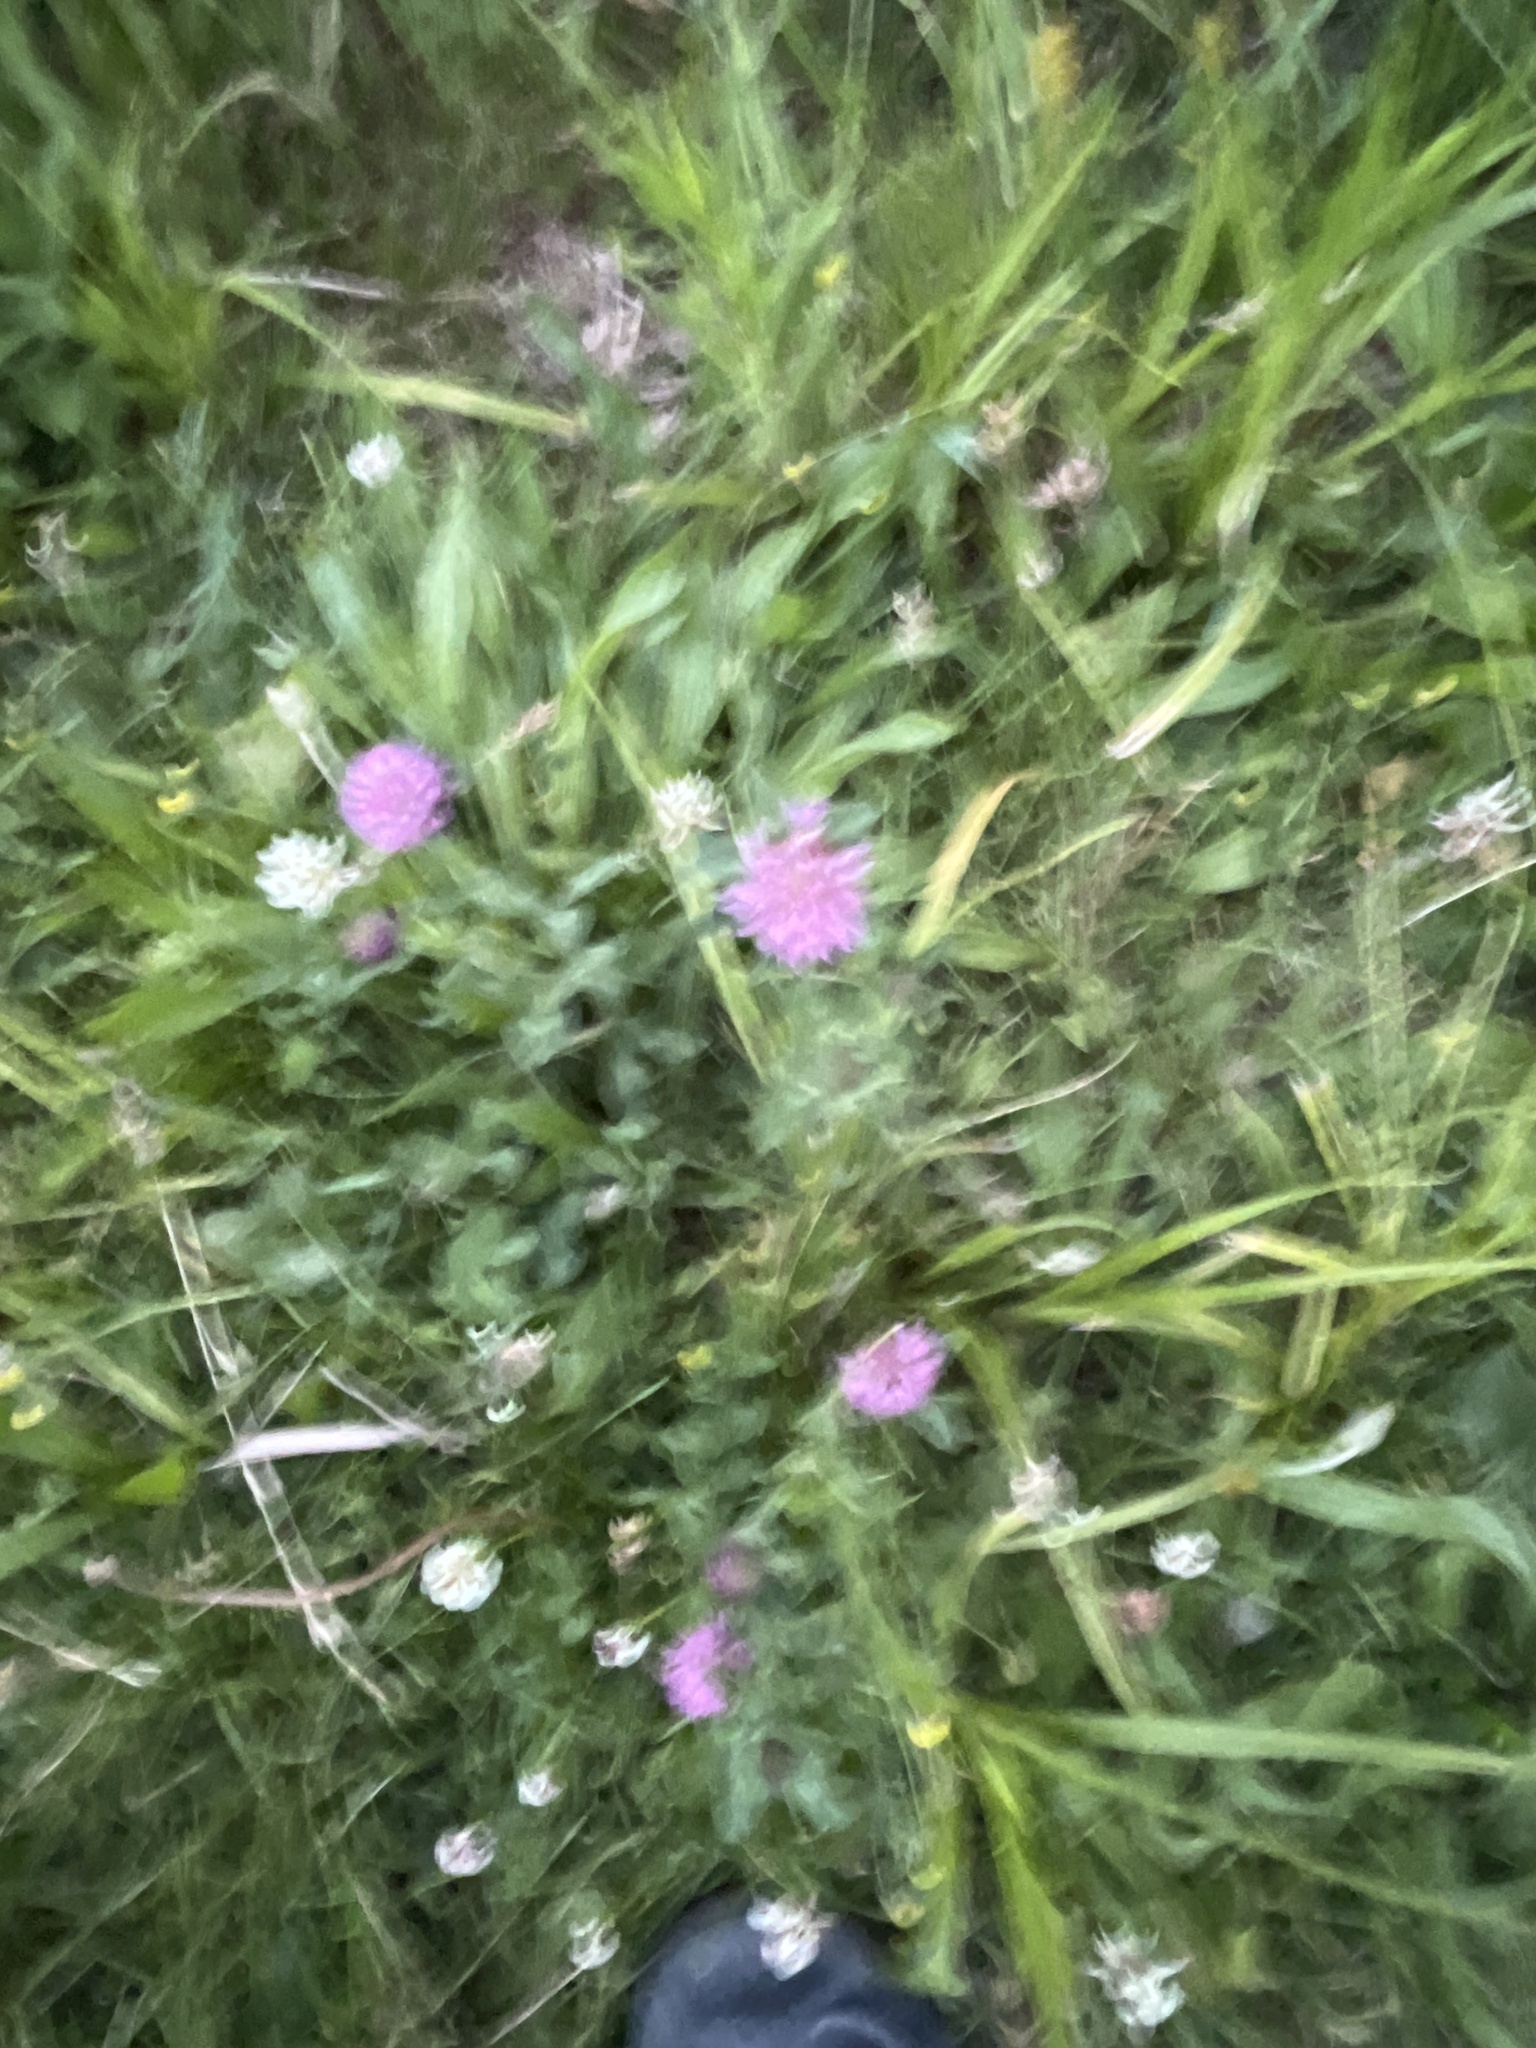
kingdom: Plantae
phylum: Tracheophyta
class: Magnoliopsida
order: Fabales
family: Fabaceae
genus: Trifolium
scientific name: Trifolium pratense
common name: Red clover
